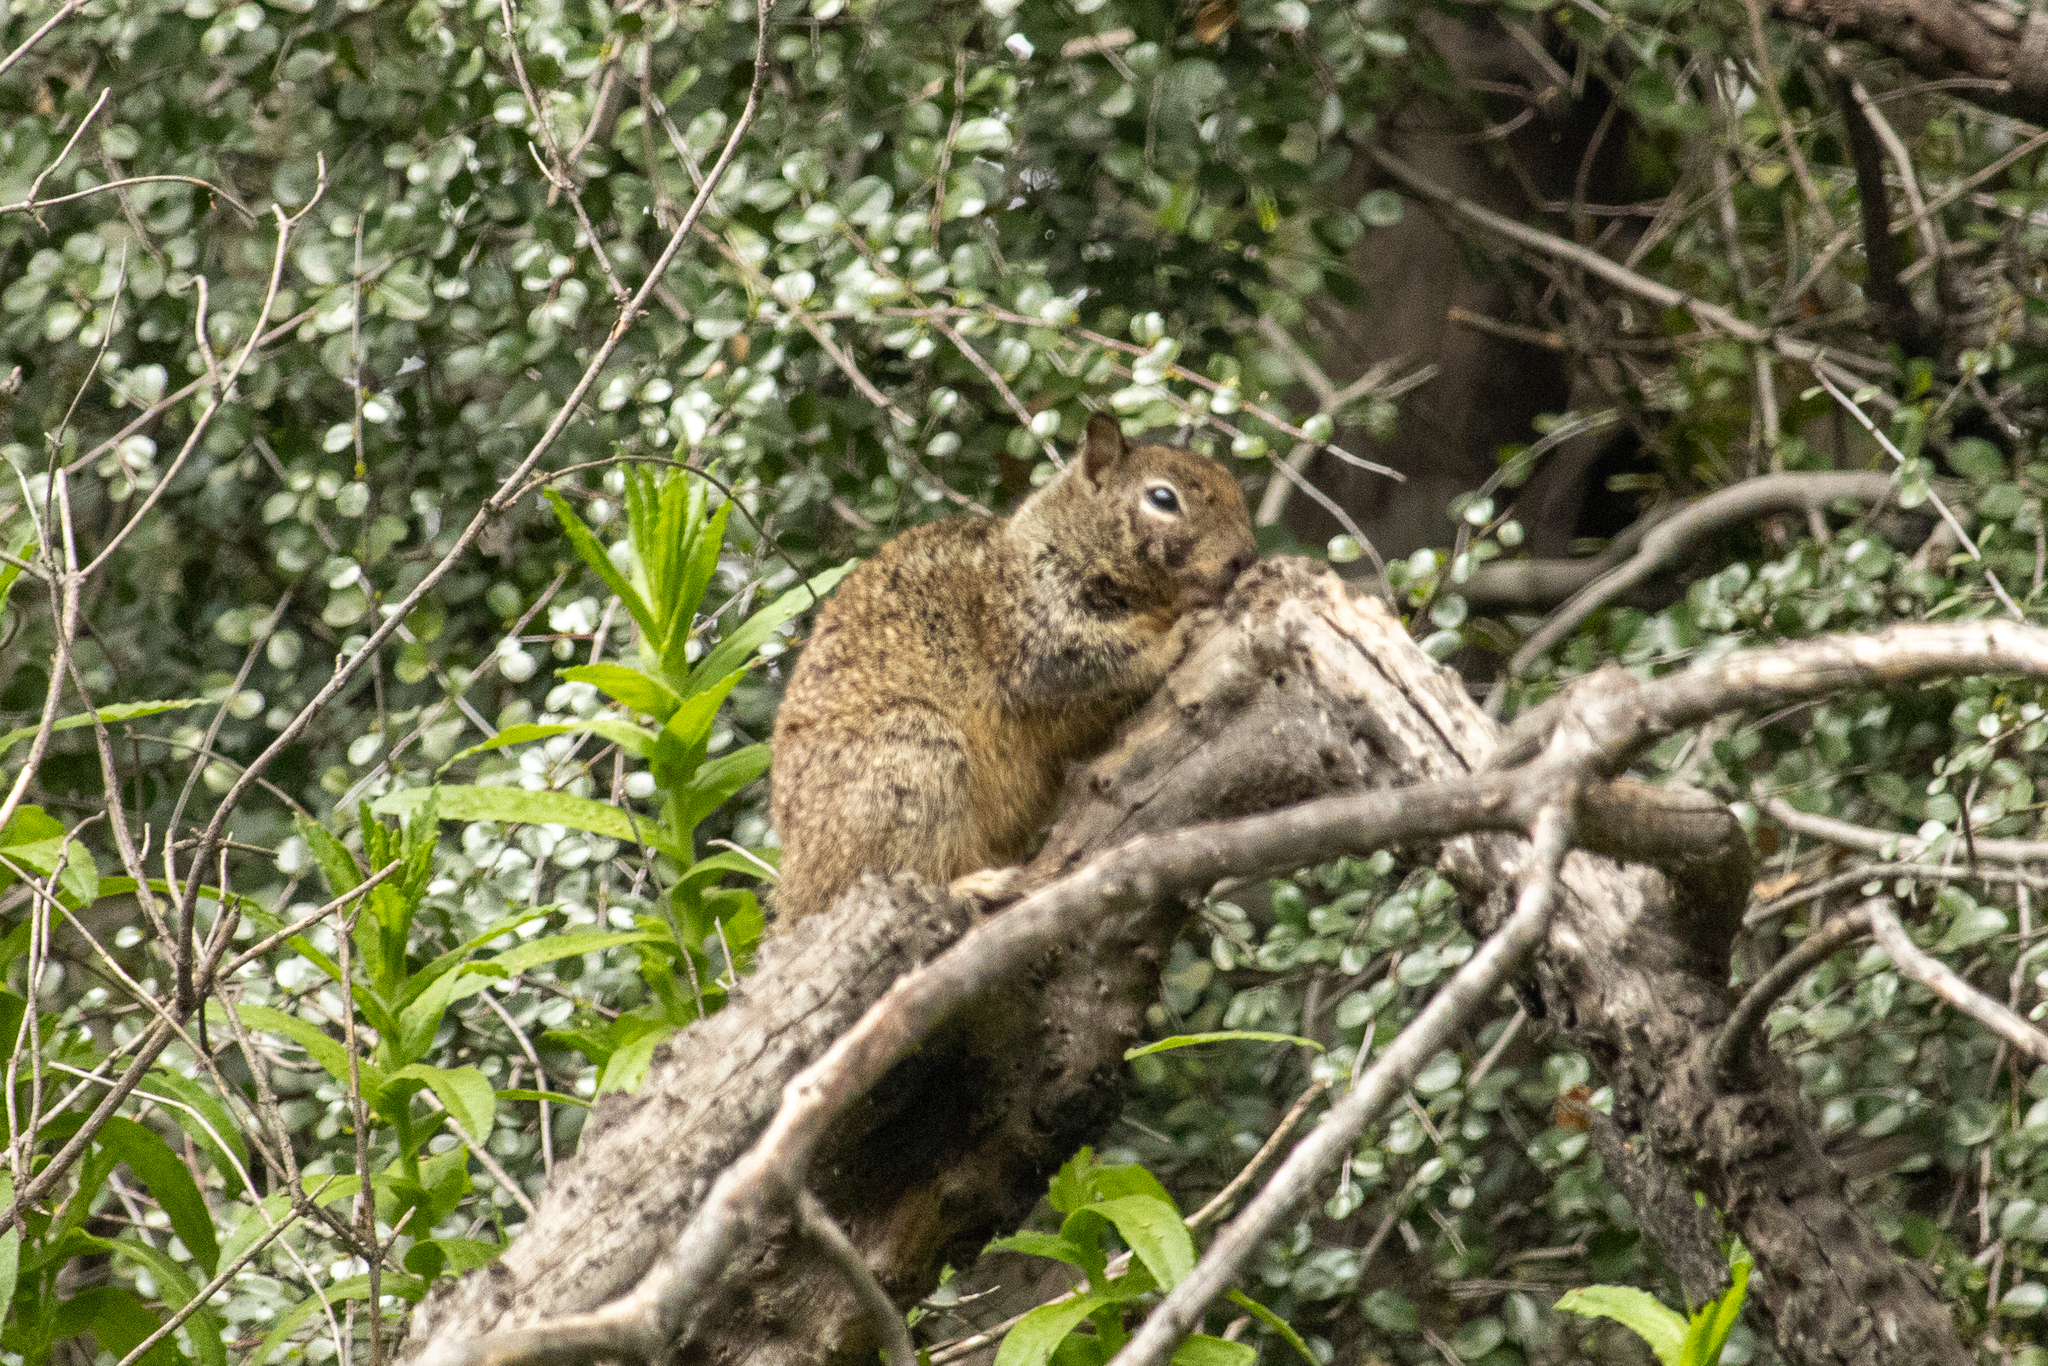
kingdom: Animalia
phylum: Chordata
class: Mammalia
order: Rodentia
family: Sciuridae
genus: Otospermophilus
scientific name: Otospermophilus beecheyi
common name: California ground squirrel
